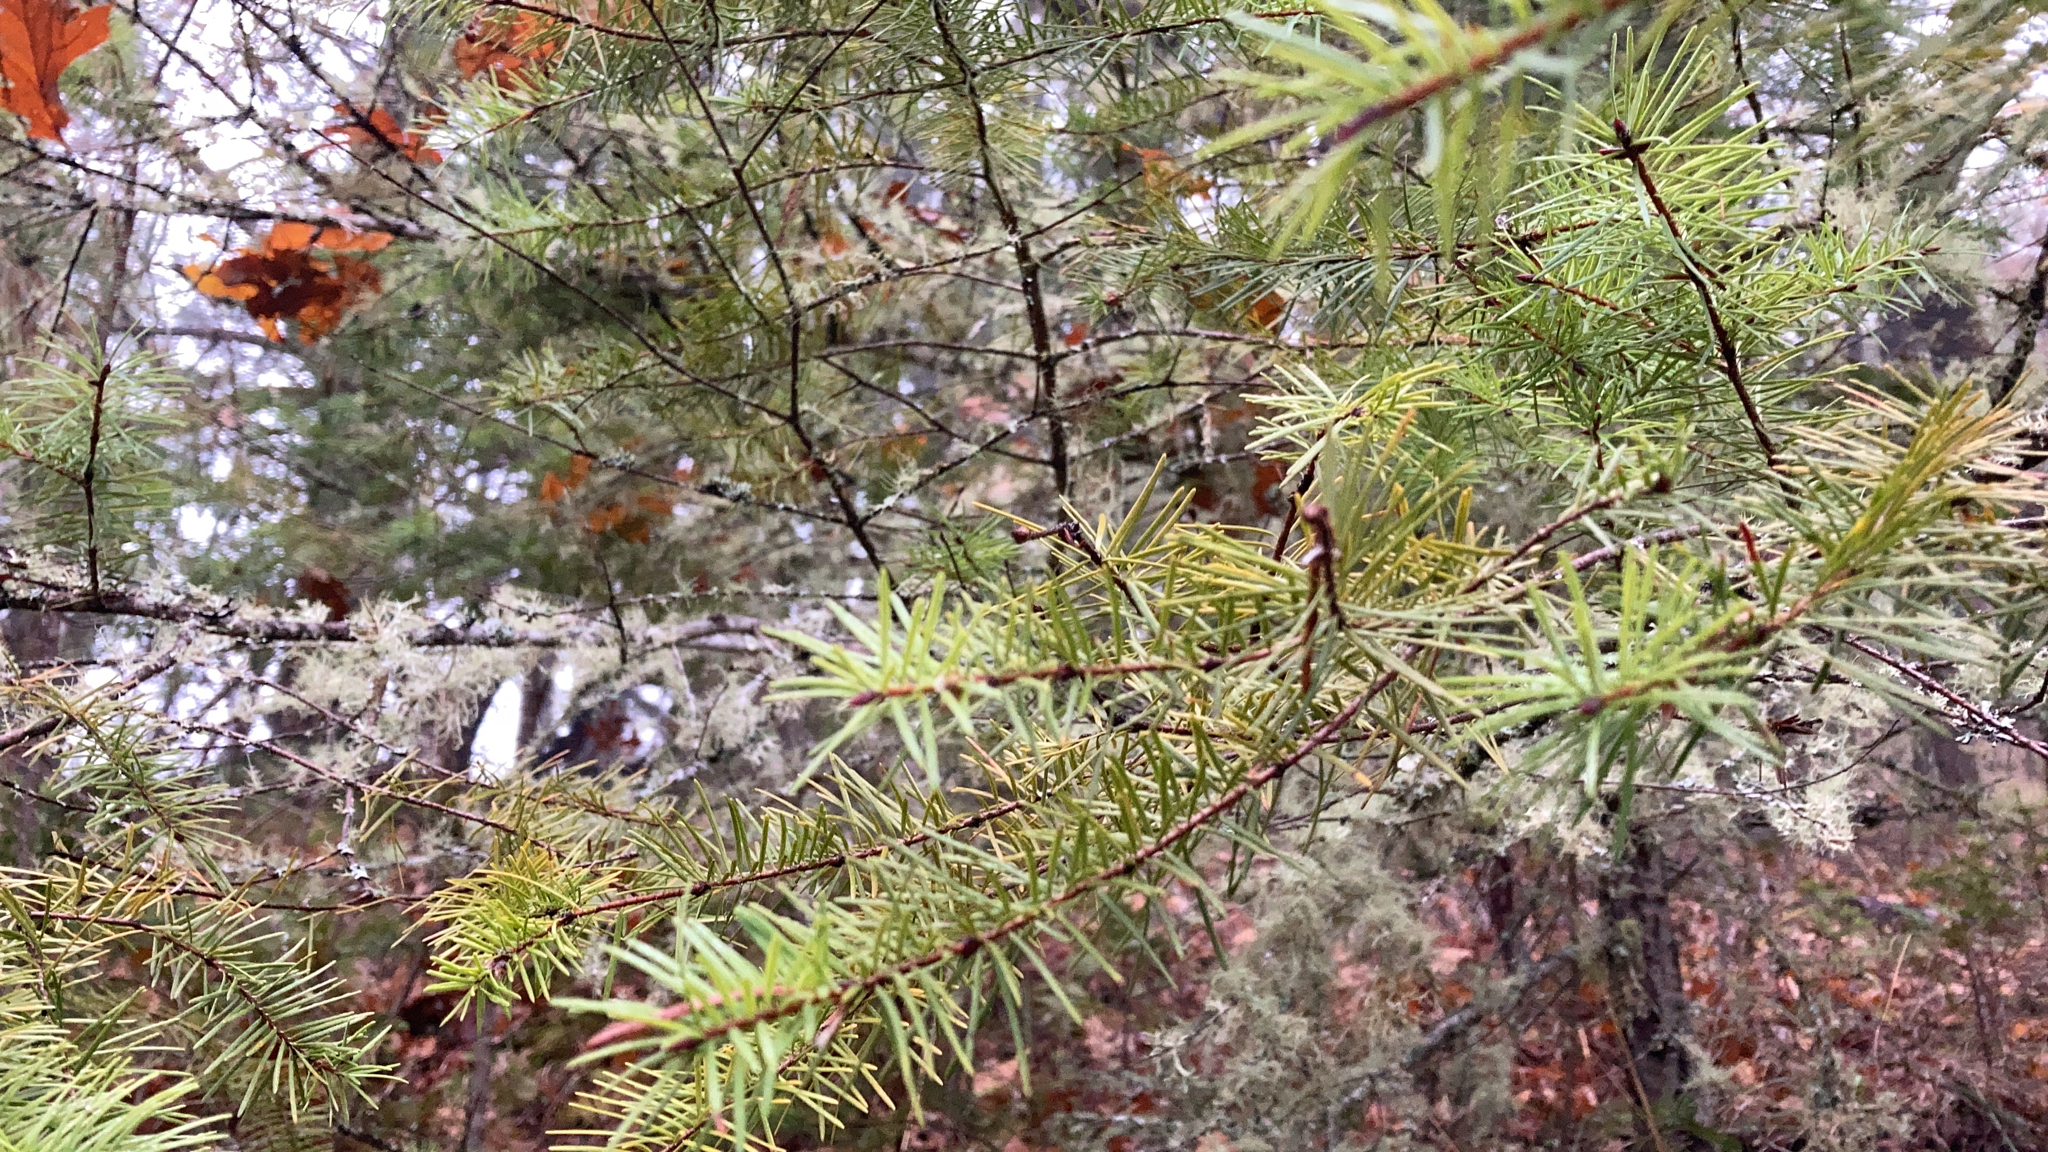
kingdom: Plantae
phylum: Tracheophyta
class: Pinopsida
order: Pinales
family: Pinaceae
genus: Pseudotsuga
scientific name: Pseudotsuga menziesii
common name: Douglas fir
